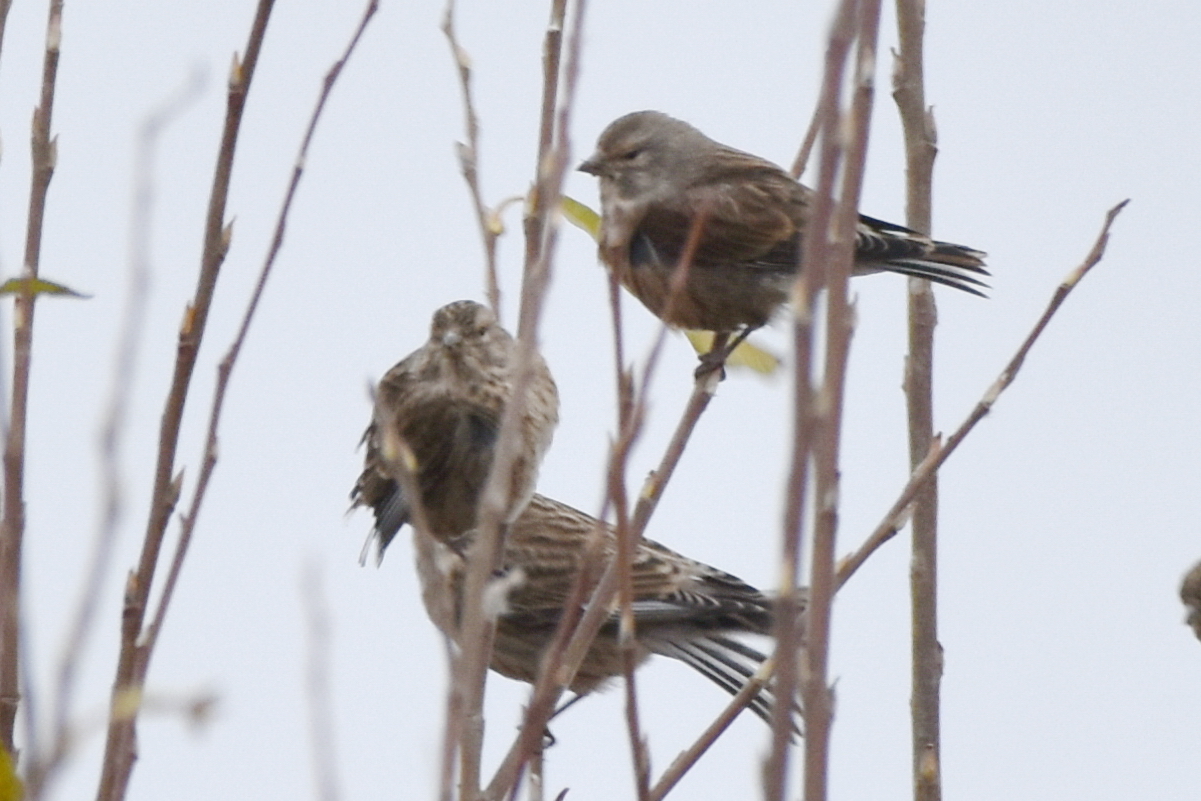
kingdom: Animalia
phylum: Chordata
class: Aves
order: Passeriformes
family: Fringillidae
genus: Linaria
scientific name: Linaria cannabina
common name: Common linnet
